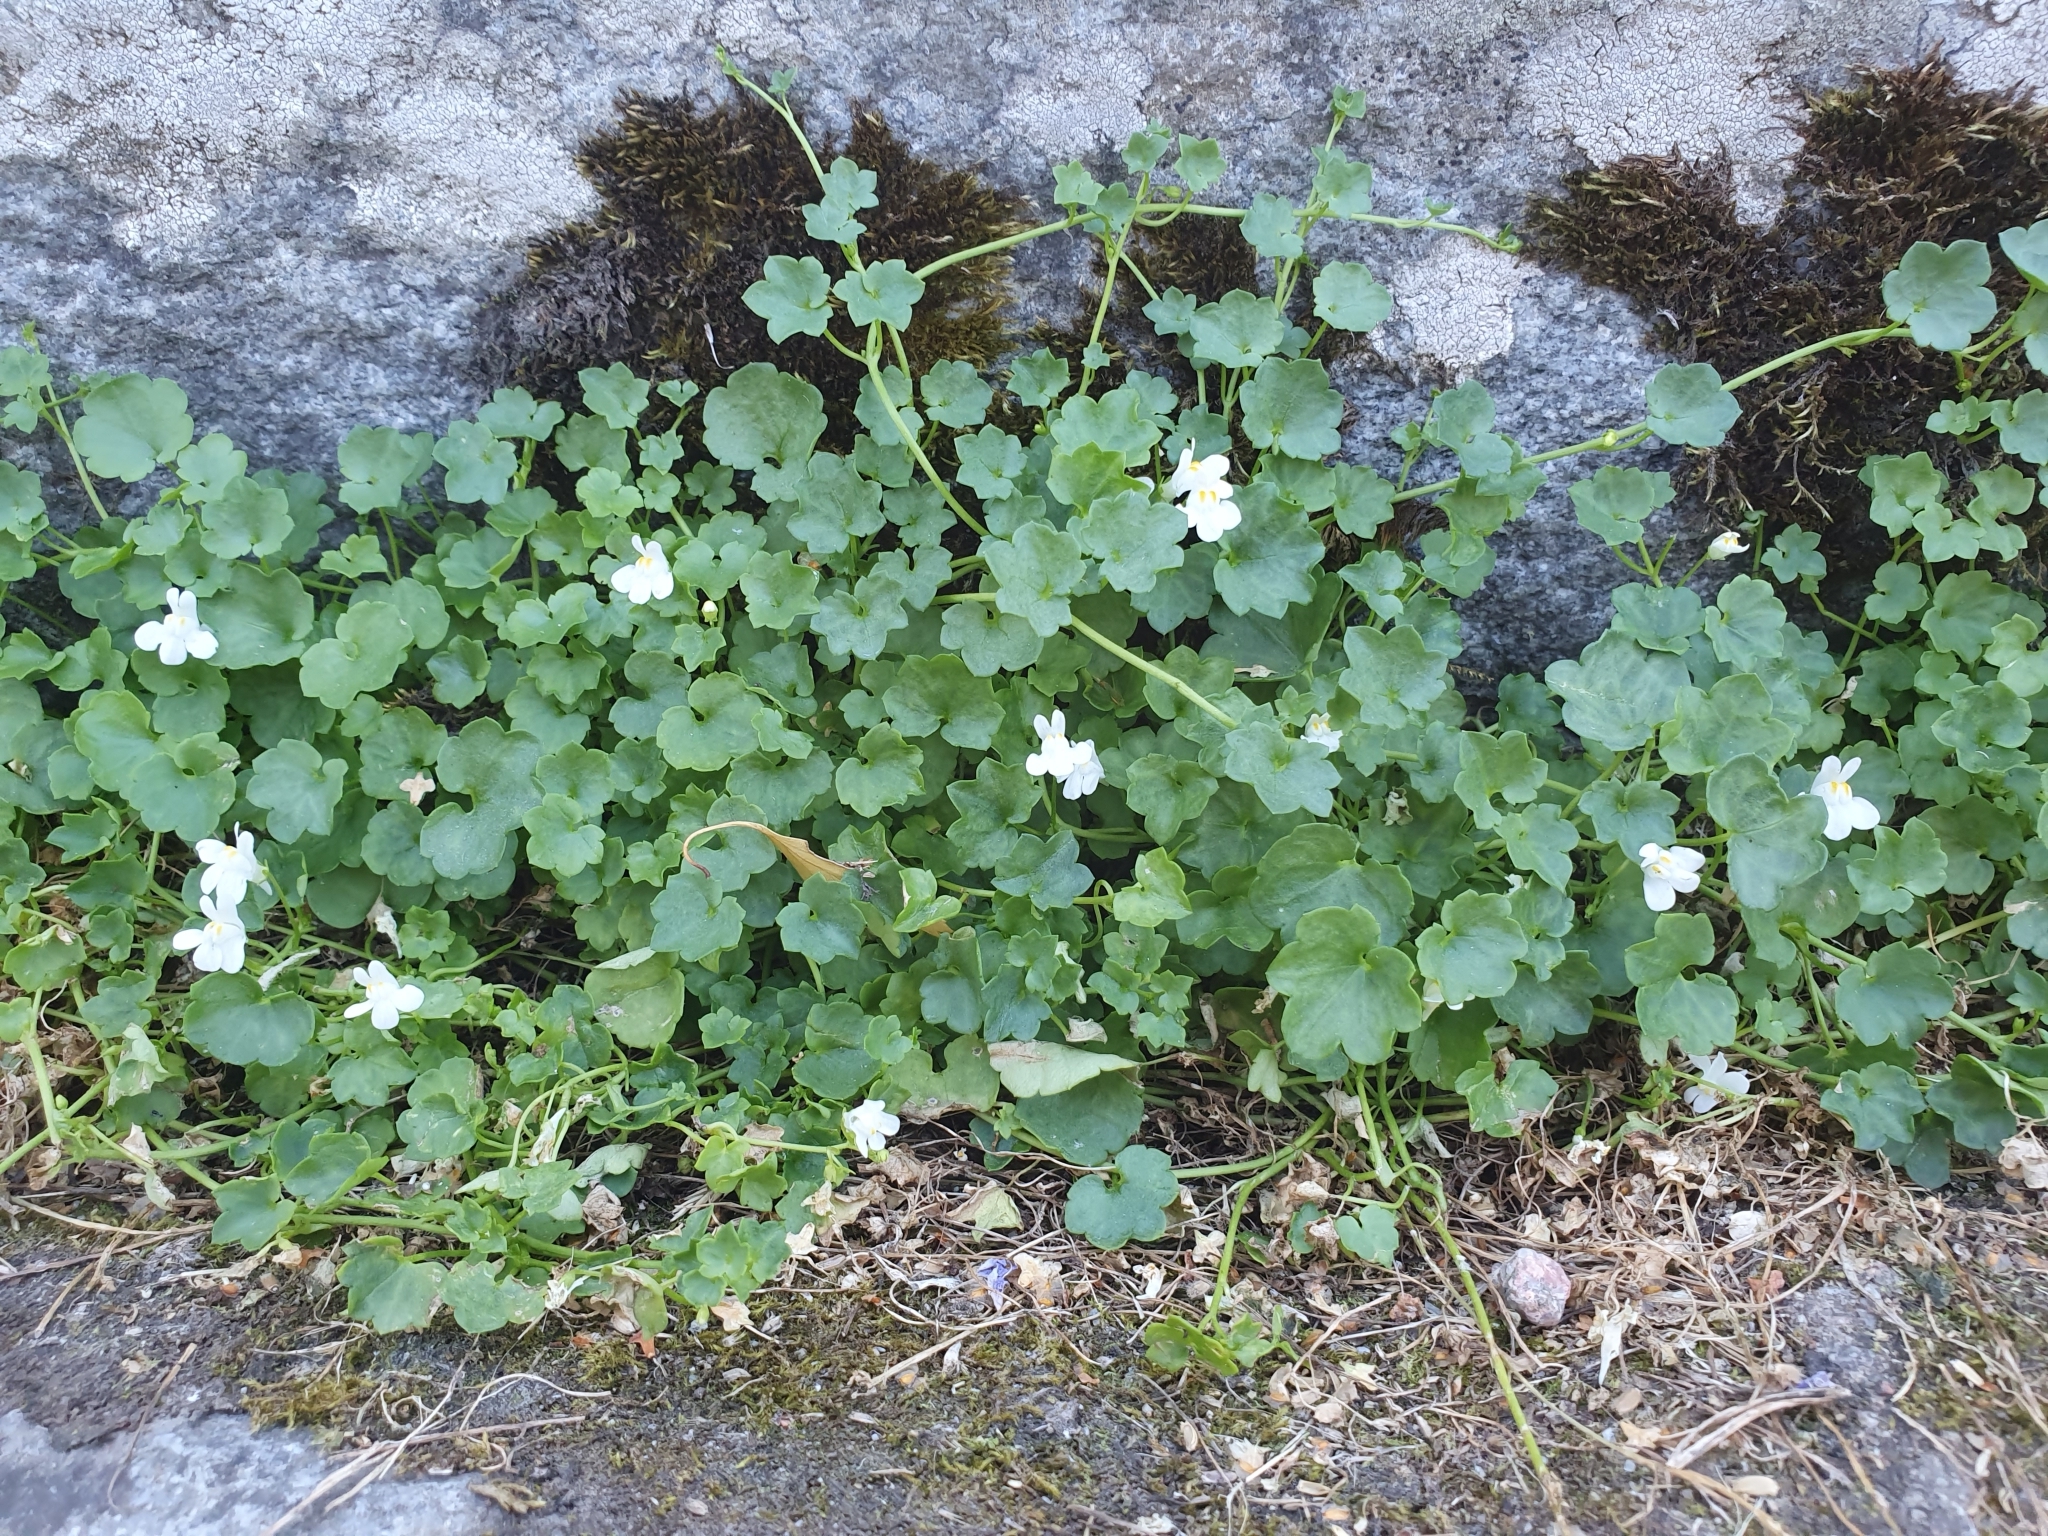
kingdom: Plantae
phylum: Tracheophyta
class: Magnoliopsida
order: Lamiales
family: Plantaginaceae
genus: Cymbalaria
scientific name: Cymbalaria muralis
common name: Ivy-leaved toadflax
